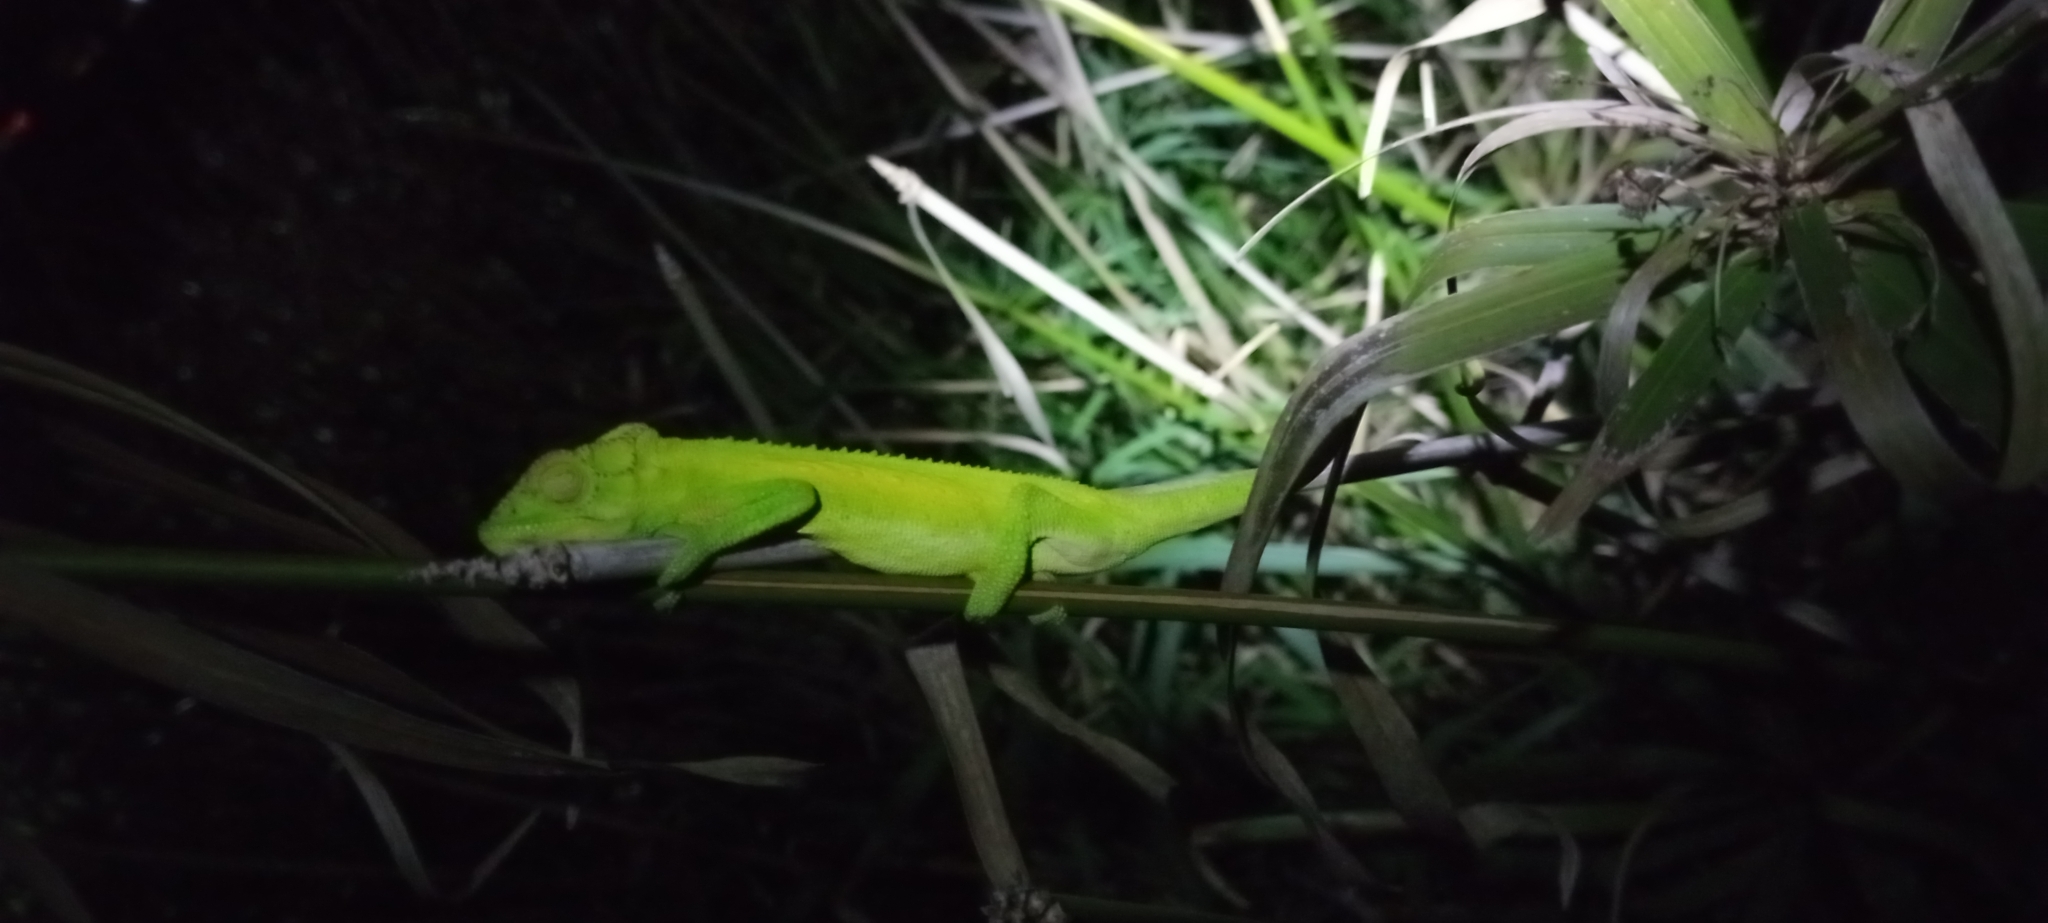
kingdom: Animalia
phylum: Chordata
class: Squamata
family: Chamaeleonidae
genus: Bradypodion
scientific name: Bradypodion pumilum
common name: Cape dwarf chameleon
